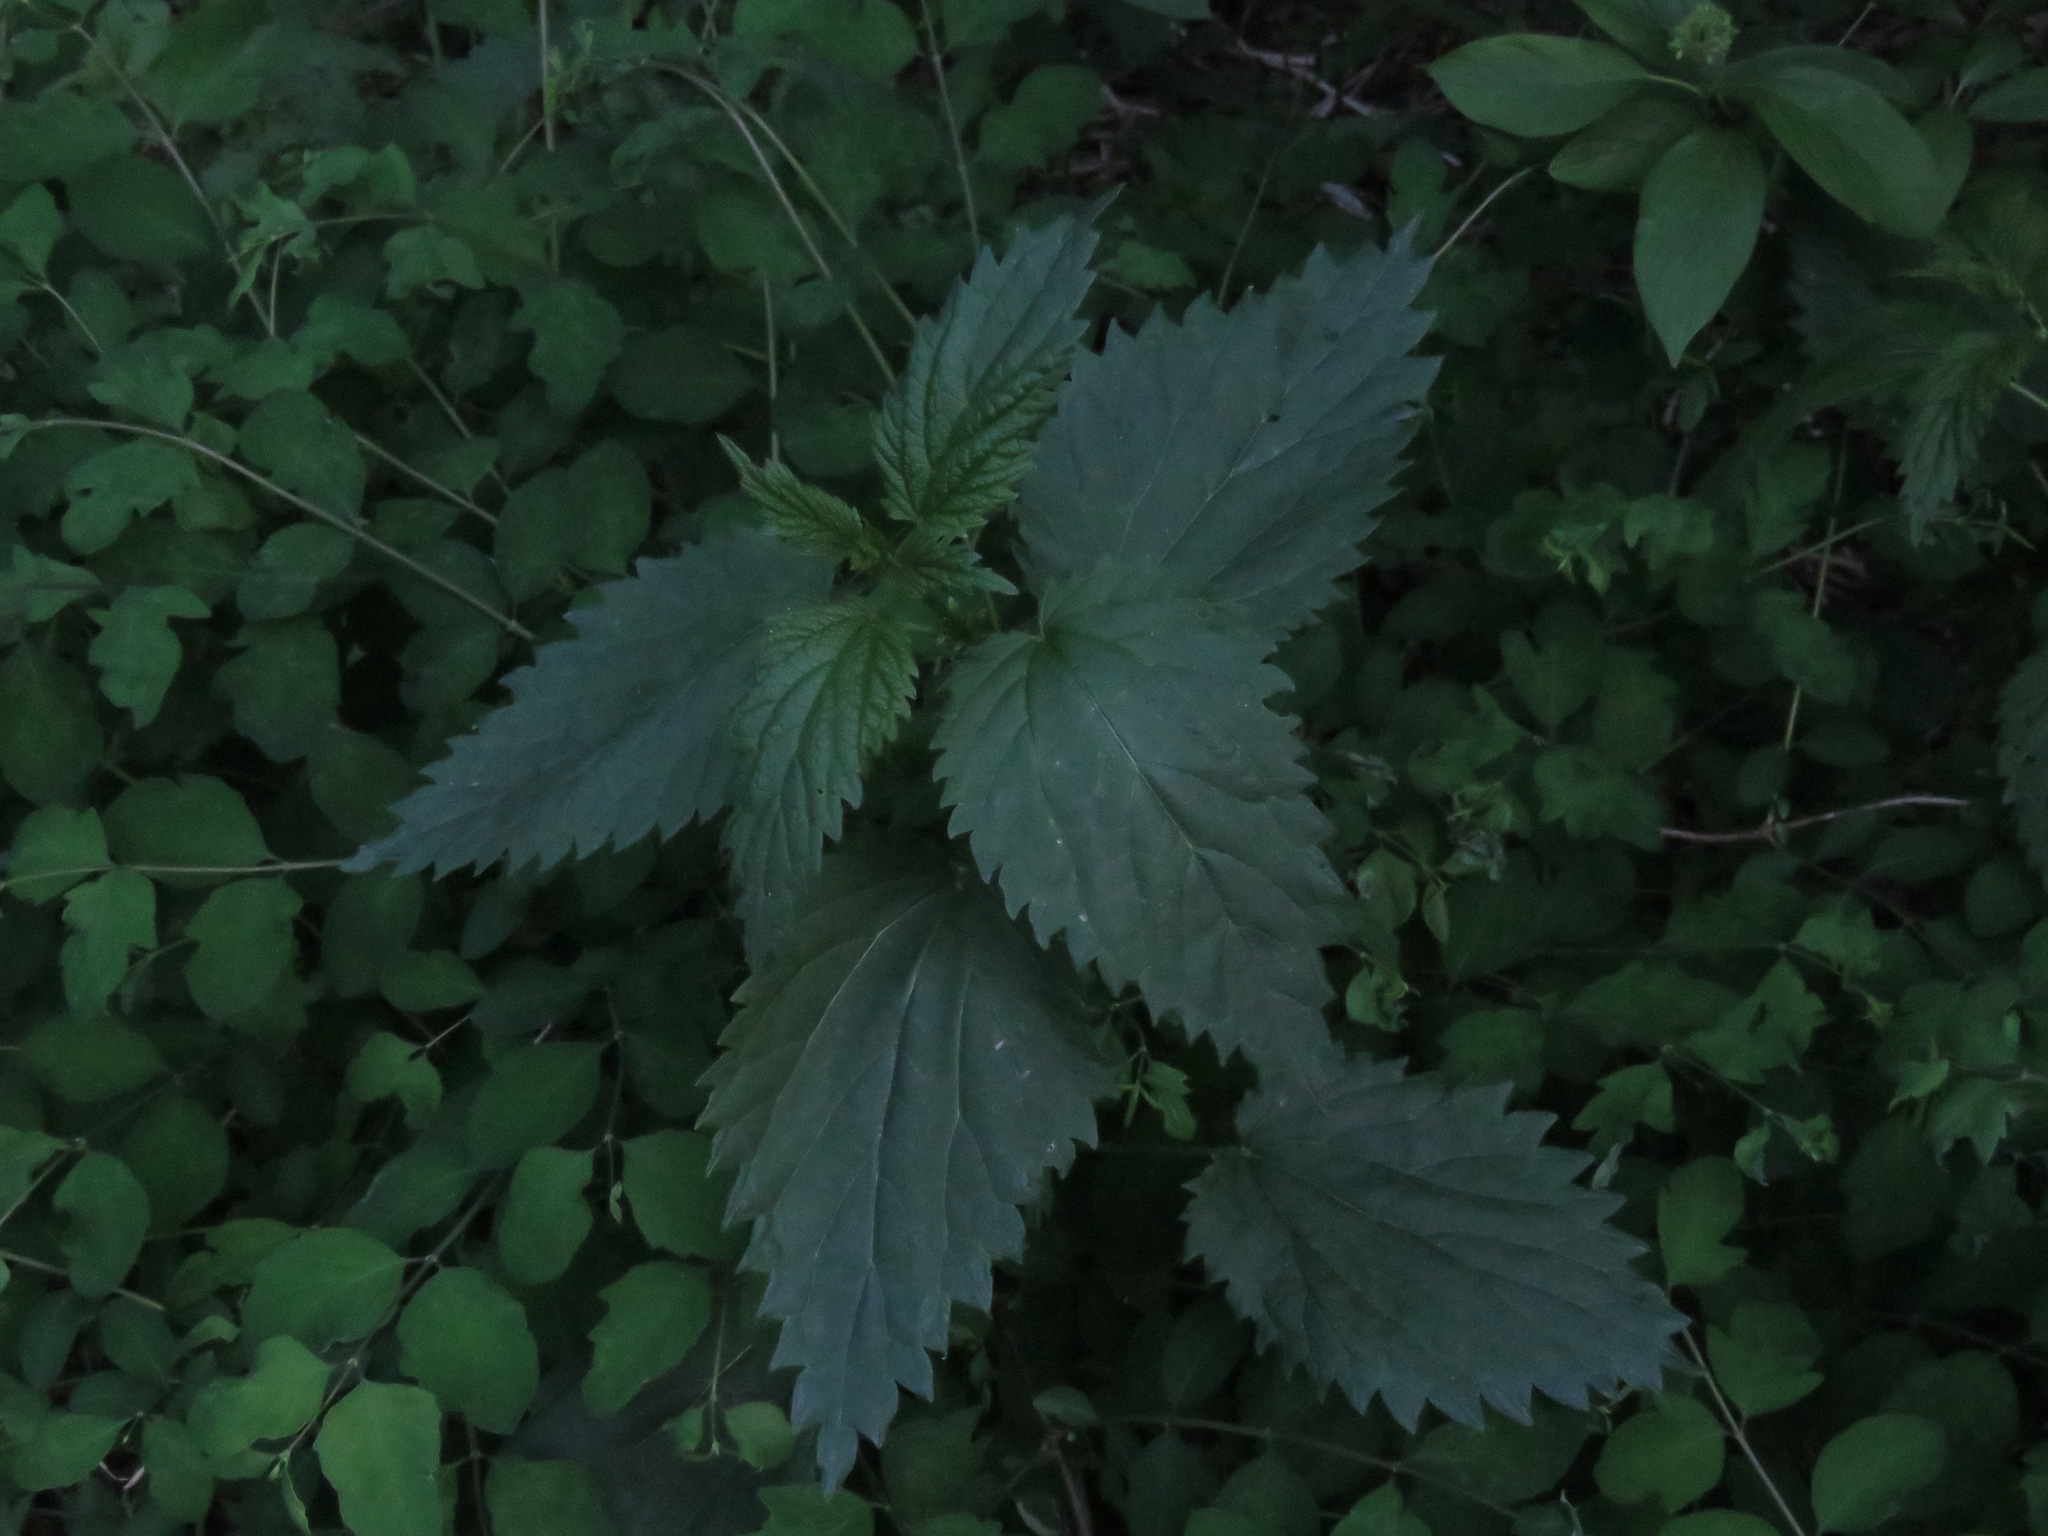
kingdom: Plantae
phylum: Tracheophyta
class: Magnoliopsida
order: Rosales
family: Urticaceae
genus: Urtica
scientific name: Urtica dioica
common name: Common nettle
